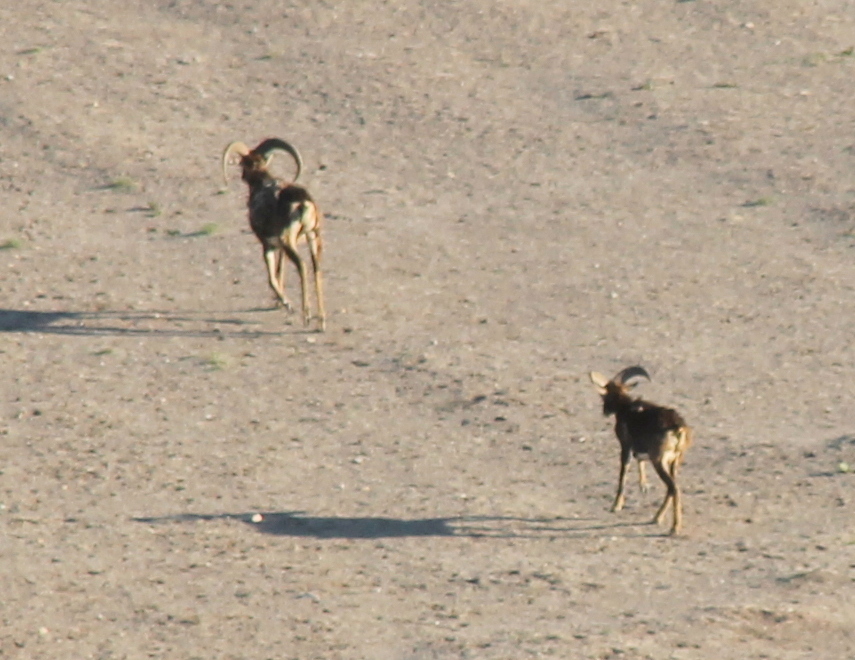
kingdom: Animalia
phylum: Chordata
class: Mammalia
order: Artiodactyla
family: Bovidae
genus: Ovis
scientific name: Ovis aries
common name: Domestic sheep
